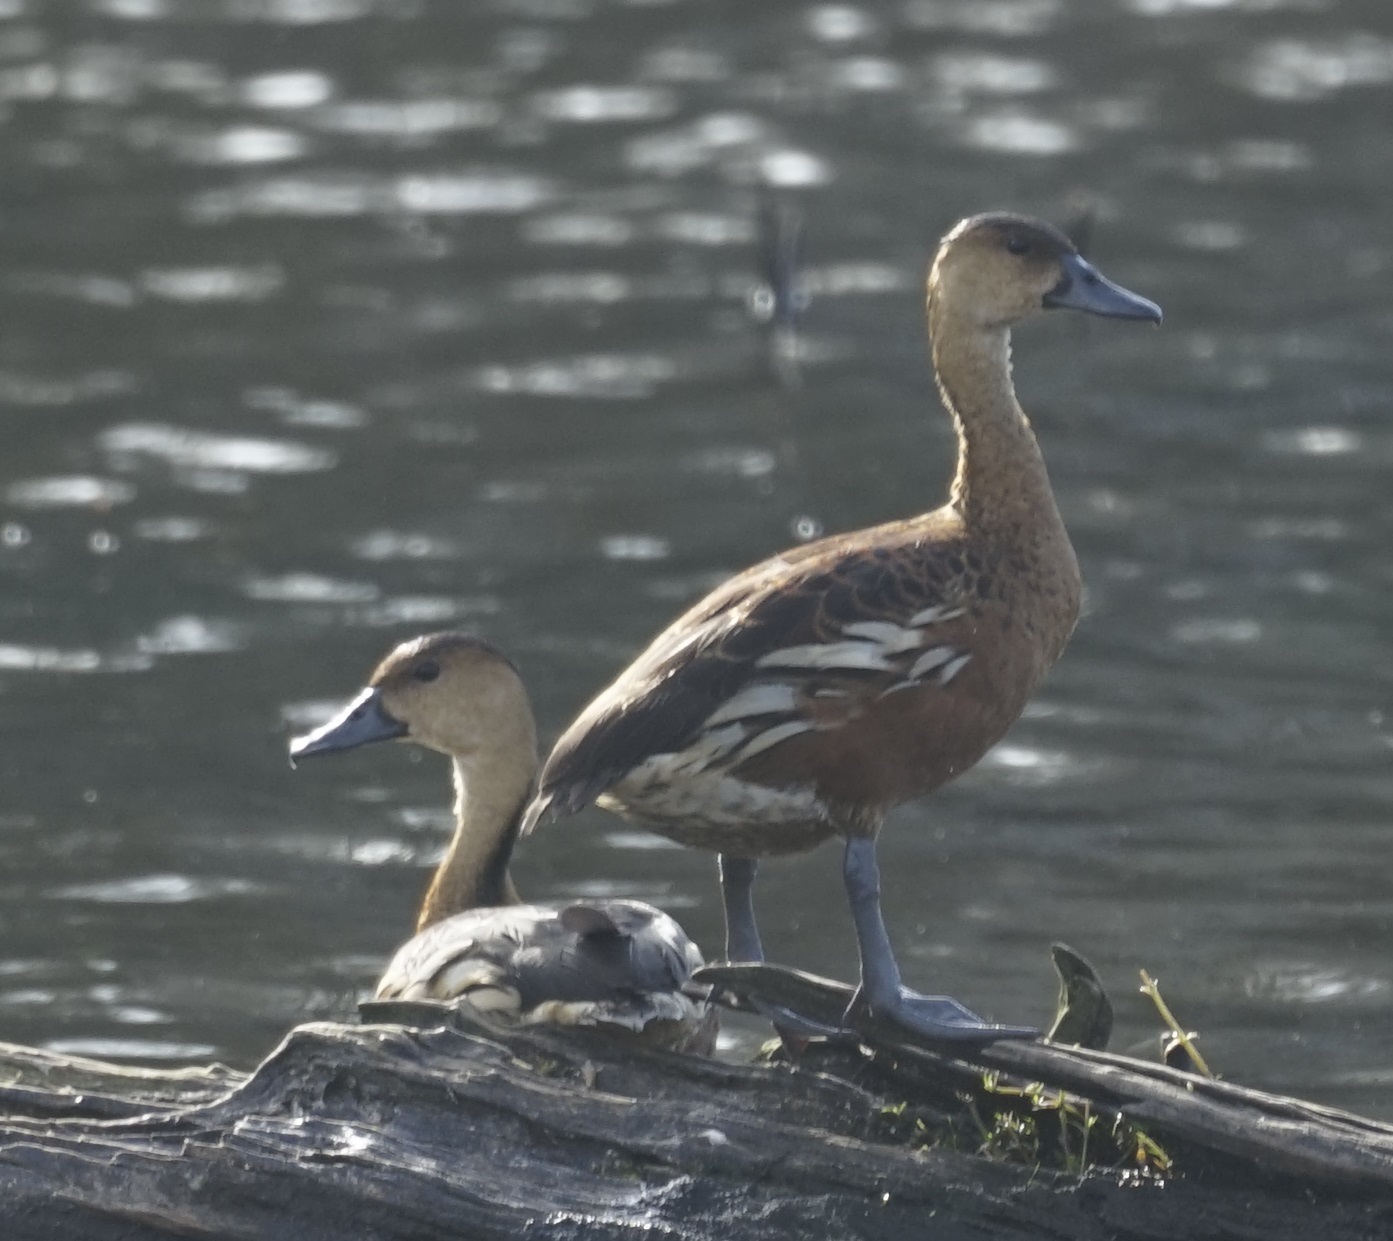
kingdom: Animalia
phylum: Chordata
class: Aves
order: Anseriformes
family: Anatidae
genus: Dendrocygna
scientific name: Dendrocygna arcuata
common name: Wandering whistling-duck
